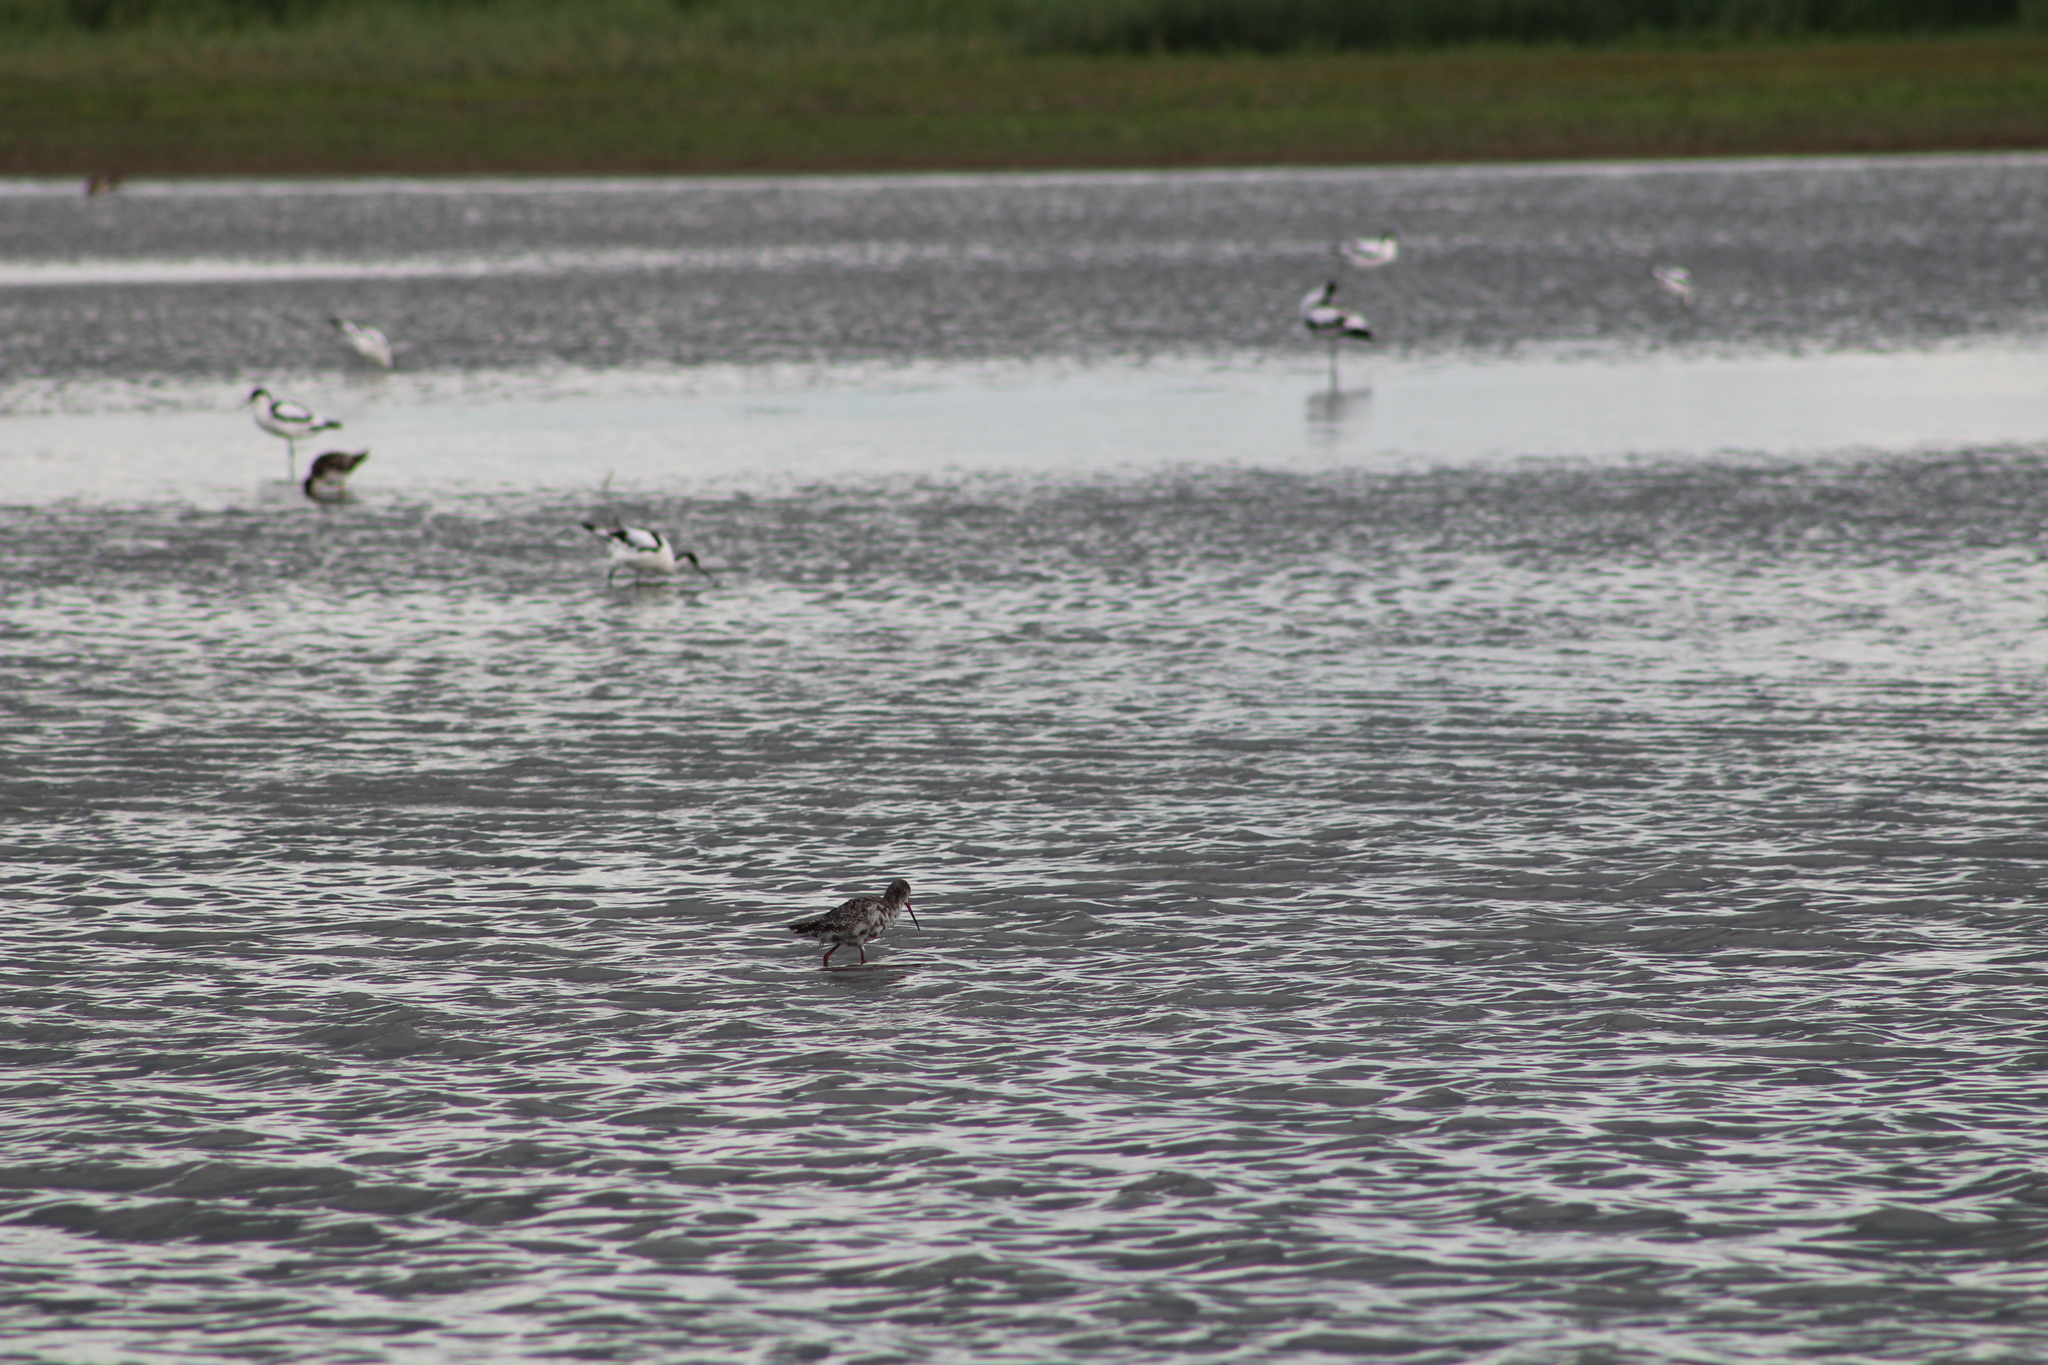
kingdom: Animalia
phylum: Chordata
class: Aves
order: Charadriiformes
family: Scolopacidae
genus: Tringa
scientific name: Tringa erythropus
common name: Spotted redshank
